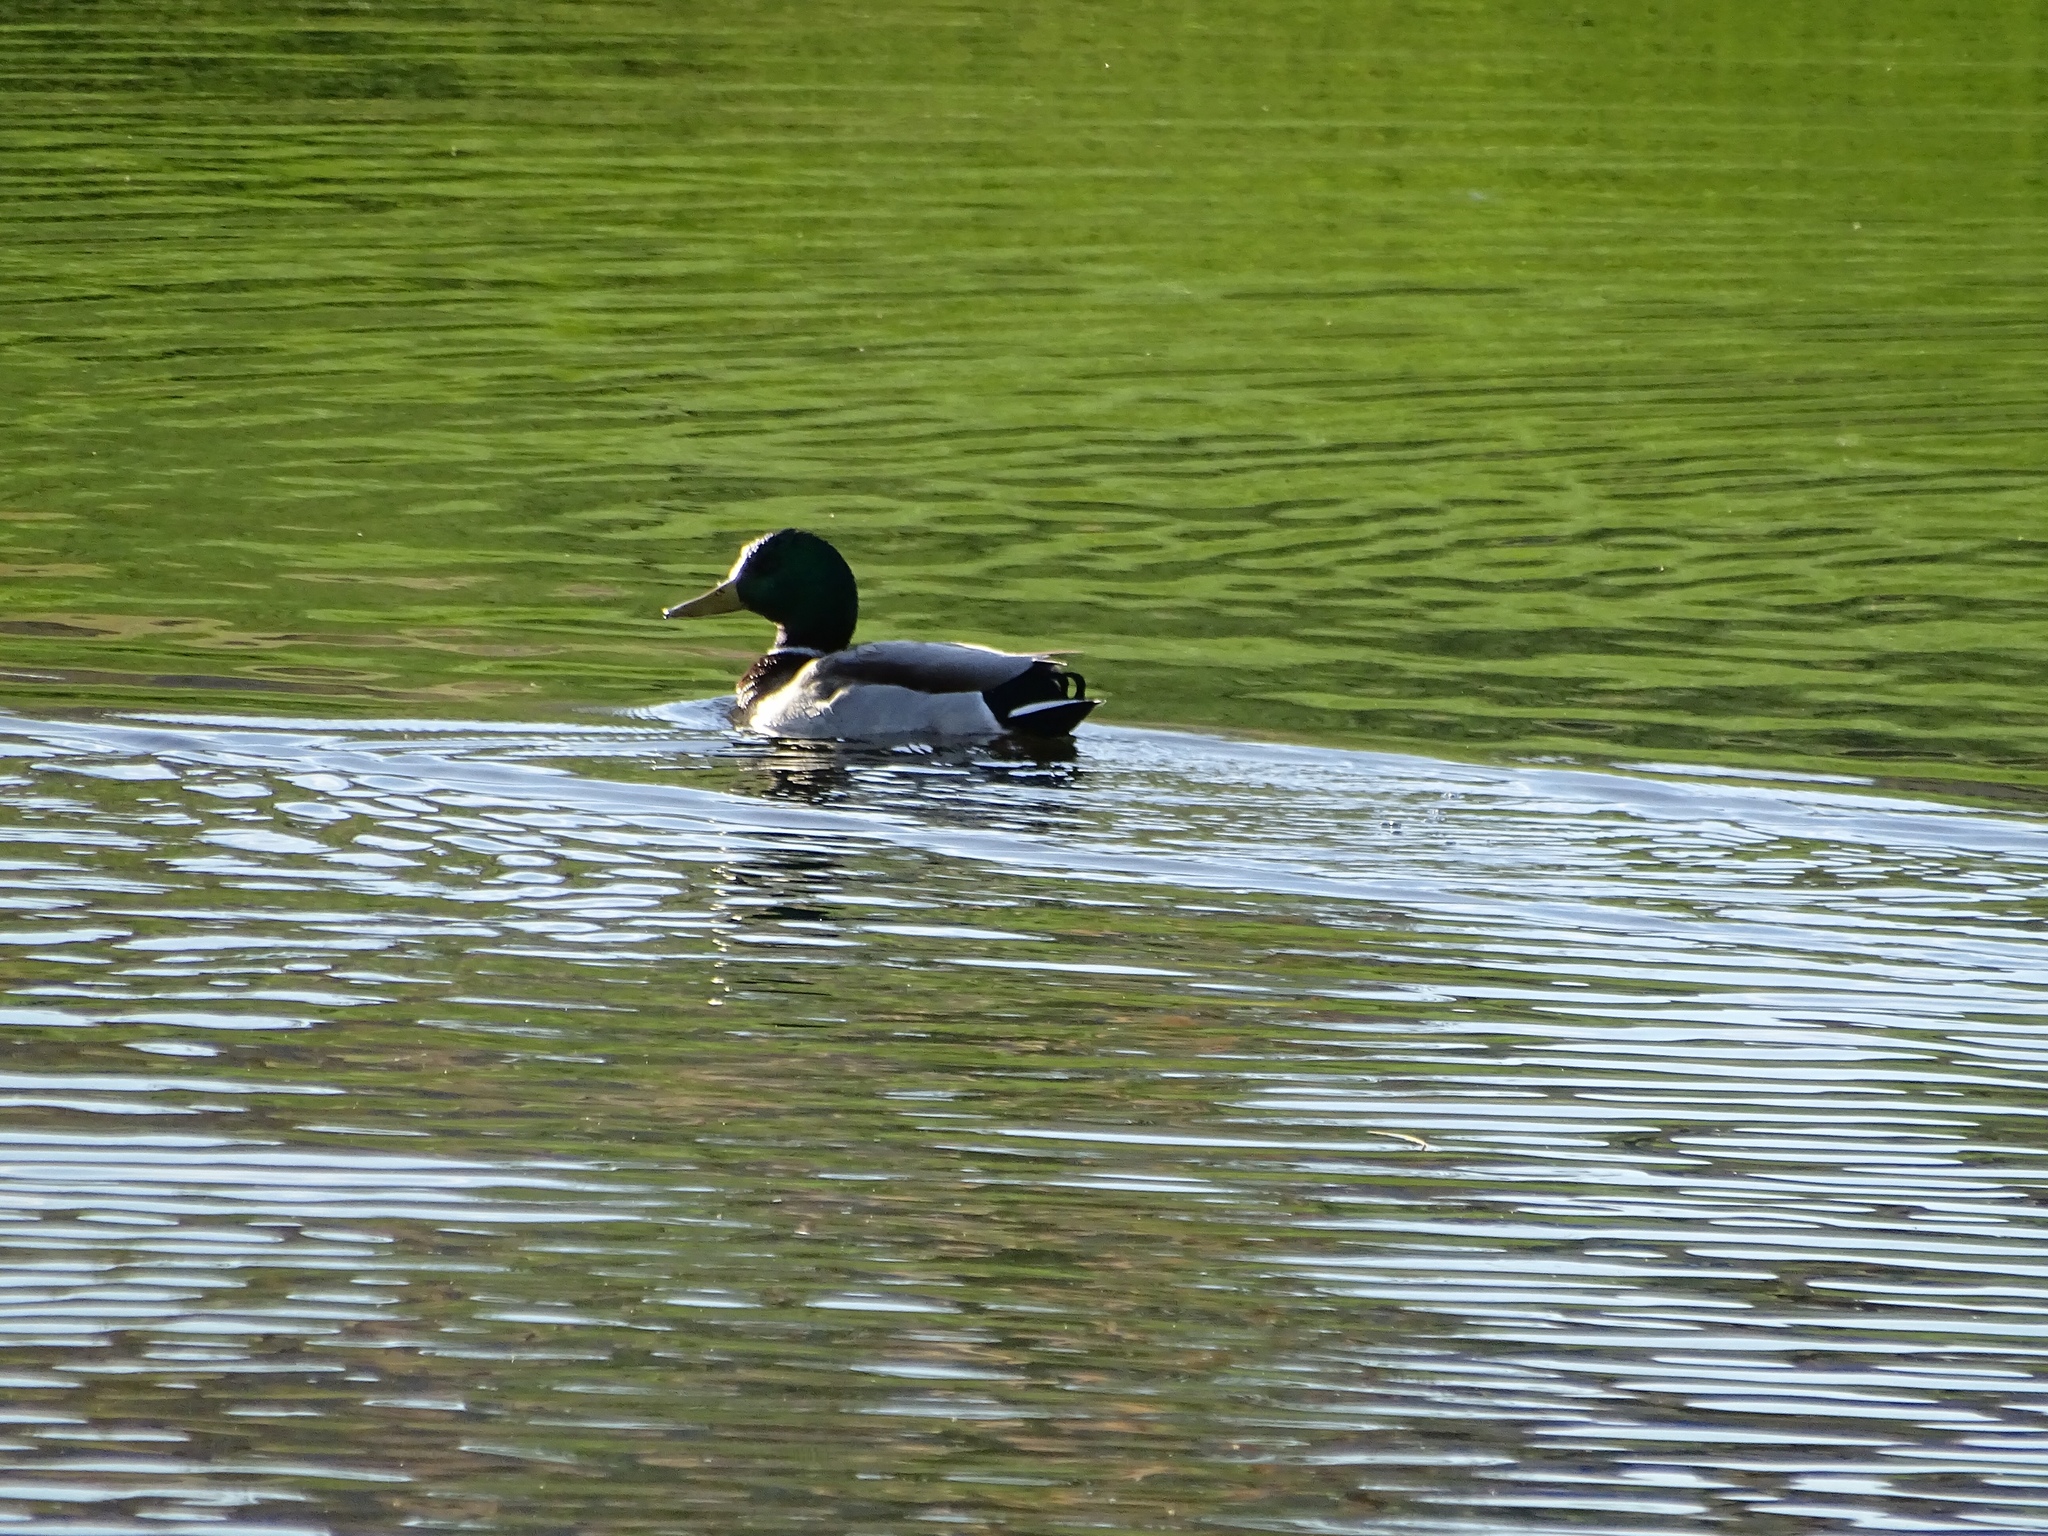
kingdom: Animalia
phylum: Chordata
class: Aves
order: Anseriformes
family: Anatidae
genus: Anas
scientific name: Anas platyrhynchos
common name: Mallard
